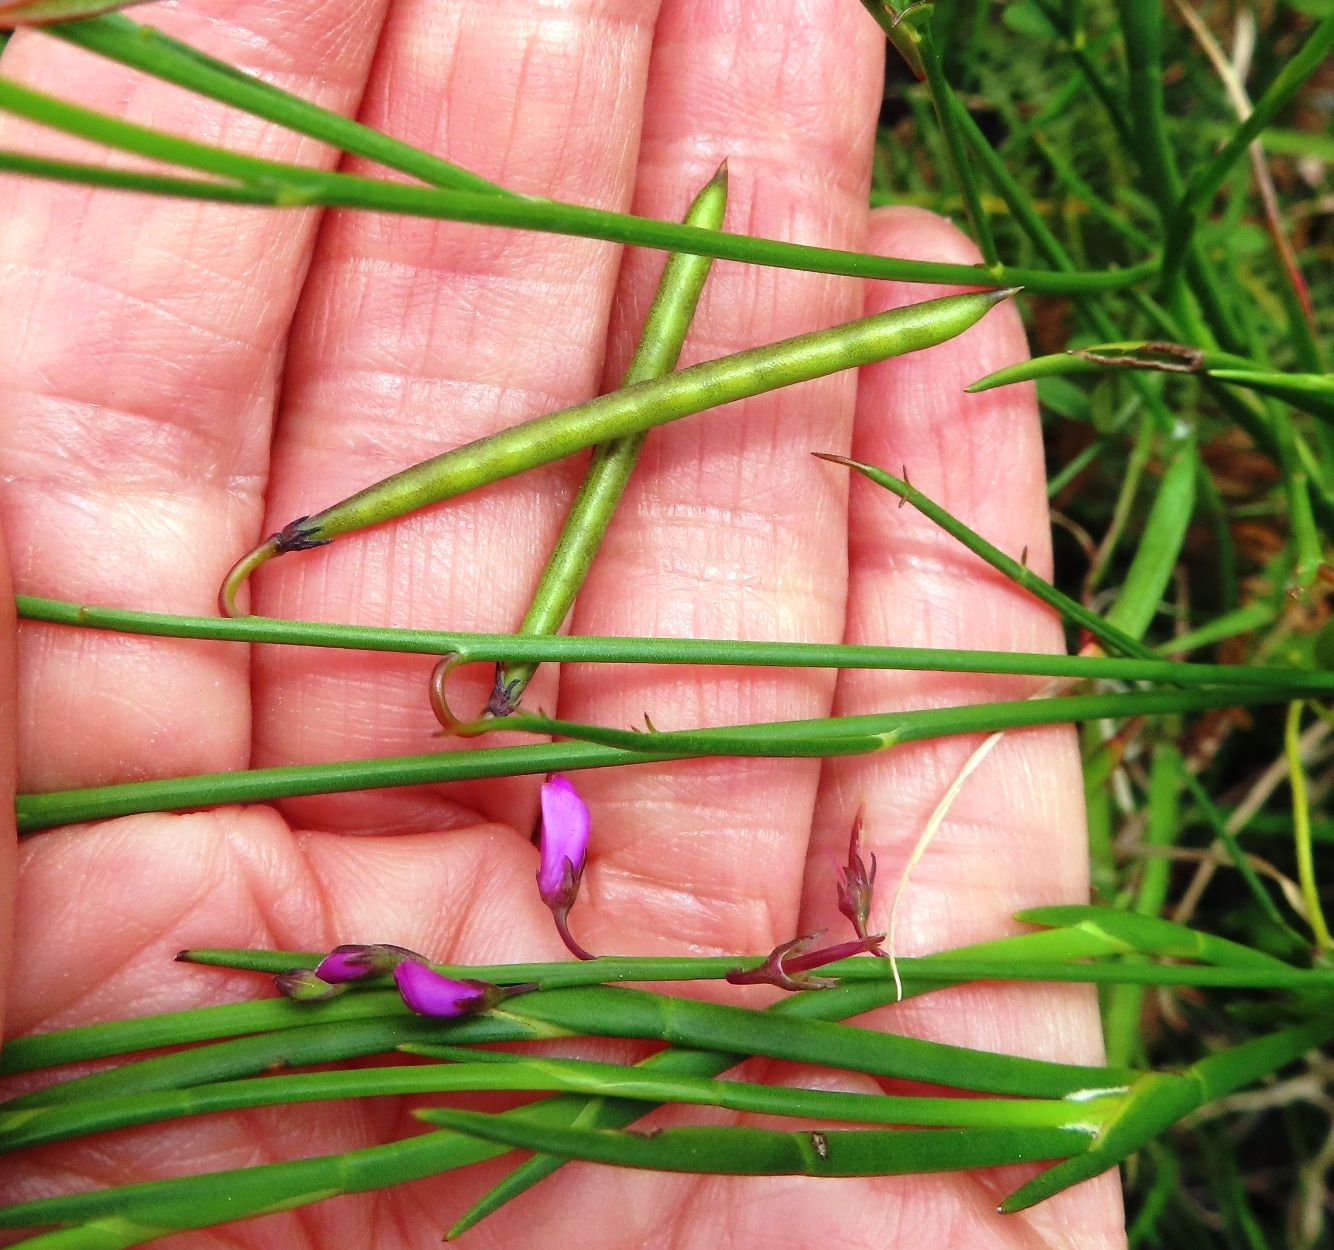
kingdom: Plantae
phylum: Tracheophyta
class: Magnoliopsida
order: Fabales
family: Fabaceae
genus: Indigofera
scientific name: Indigofera ionii
